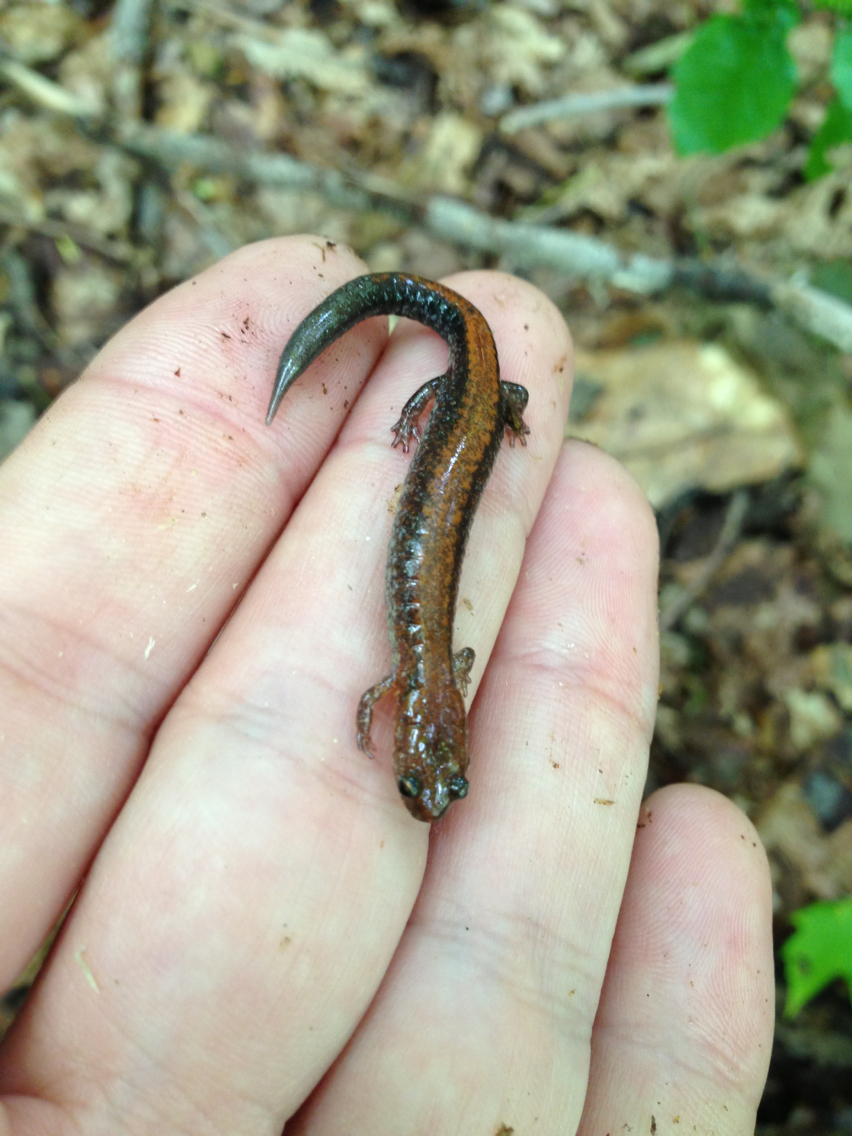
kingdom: Animalia
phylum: Chordata
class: Amphibia
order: Caudata
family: Plethodontidae
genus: Plethodon
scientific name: Plethodon cinereus
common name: Redback salamander
